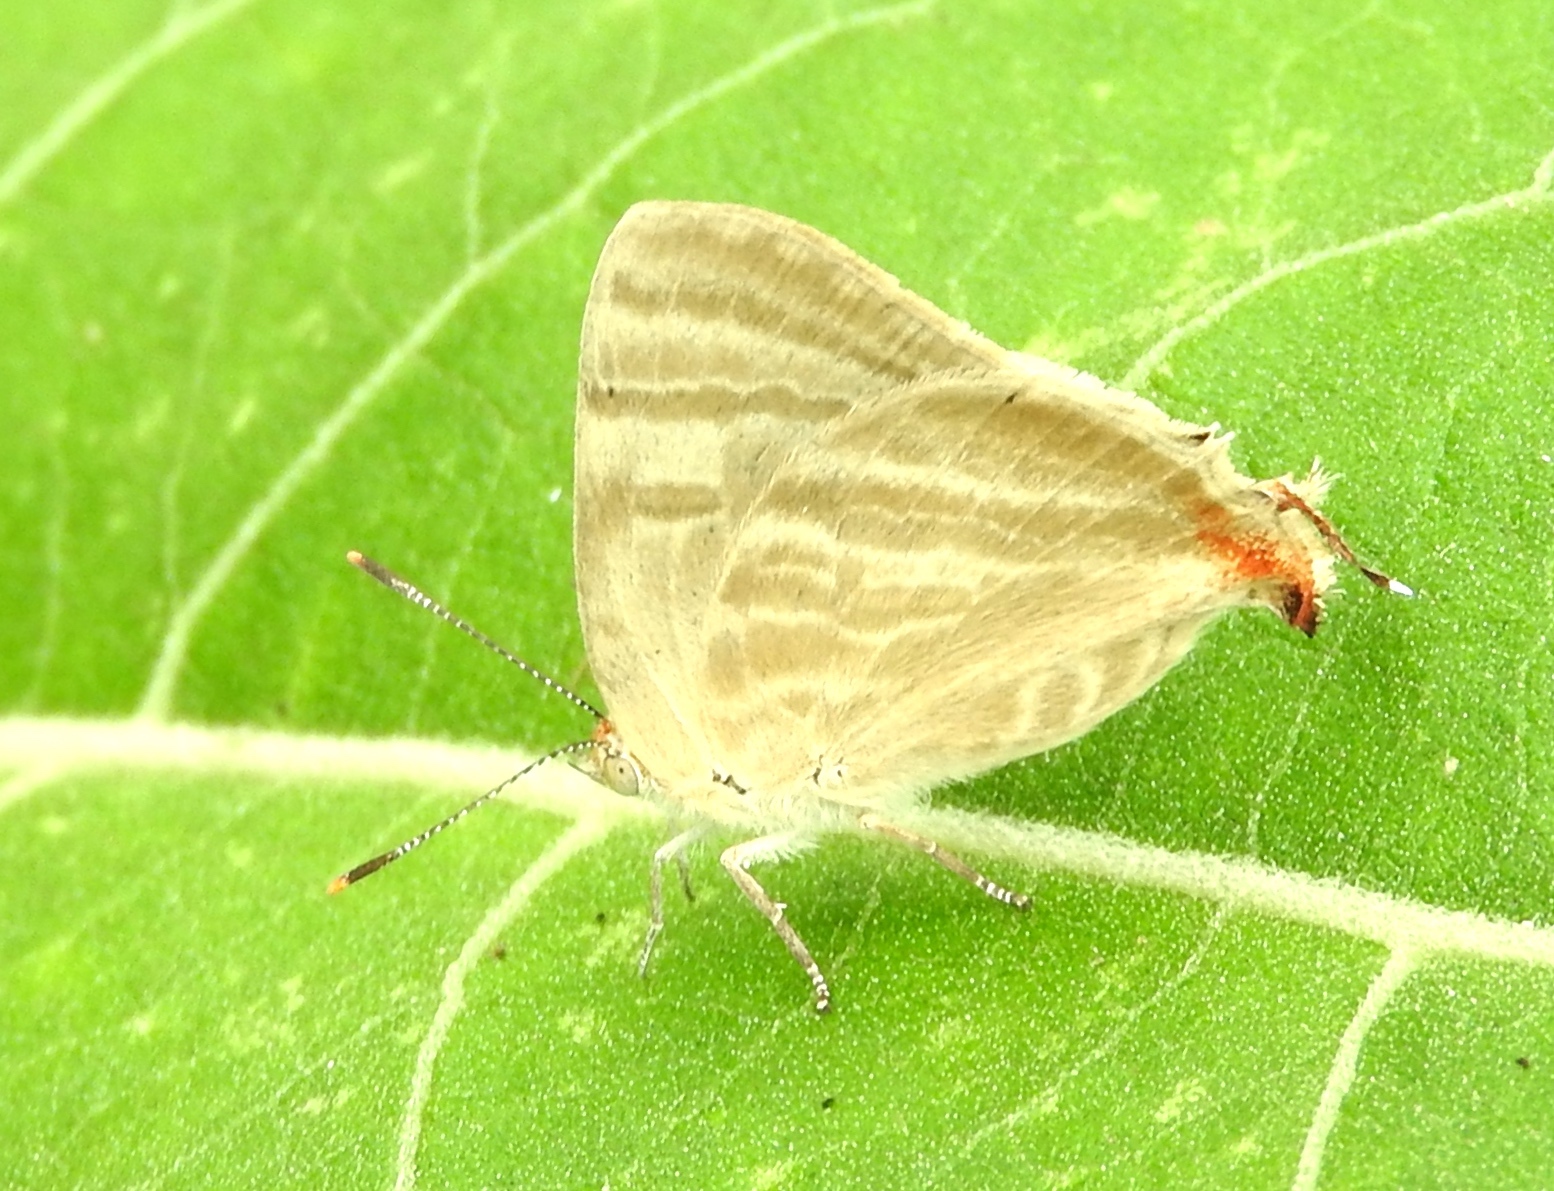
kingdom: Animalia
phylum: Arthropoda
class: Insecta
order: Lepidoptera
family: Lycaenidae
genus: Dolymorpha
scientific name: Dolymorpha jada
